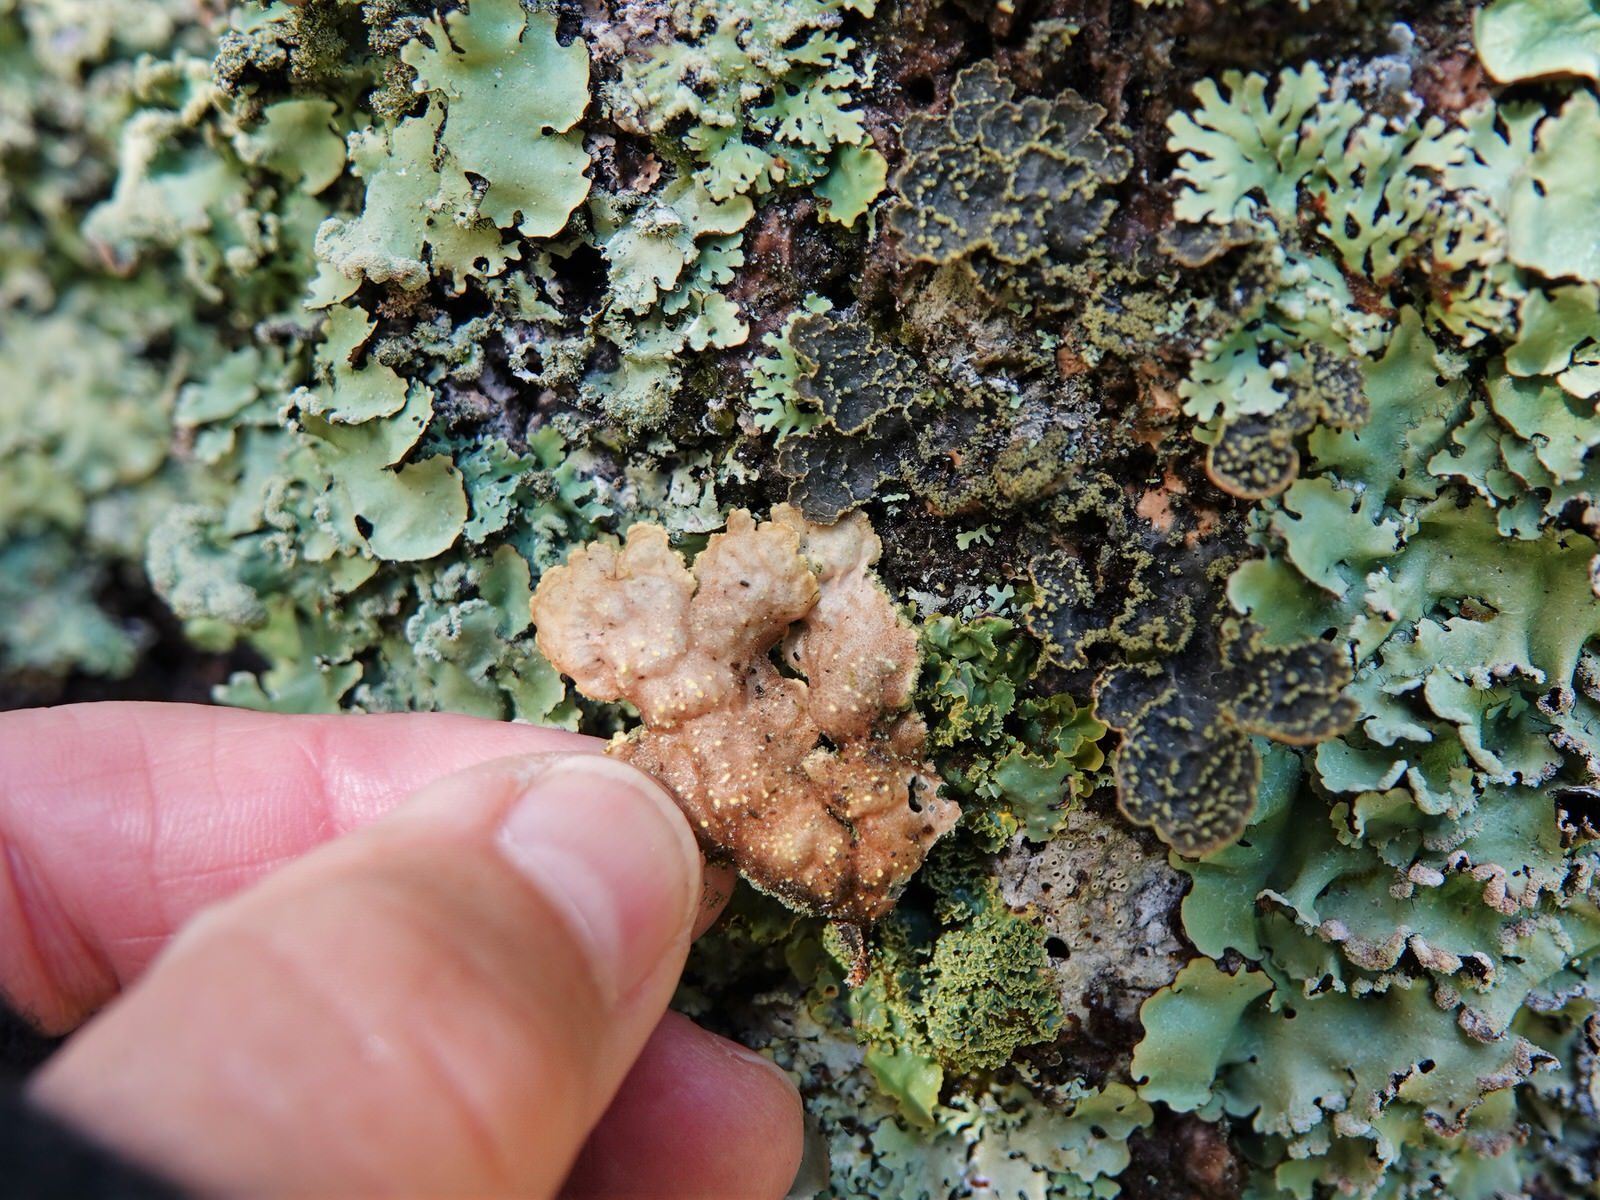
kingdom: Fungi
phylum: Ascomycota
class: Lecanoromycetes
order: Peltigerales
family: Lobariaceae
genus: Pseudocyphellaria
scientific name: Pseudocyphellaria crocata
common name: Golden specklebelly
